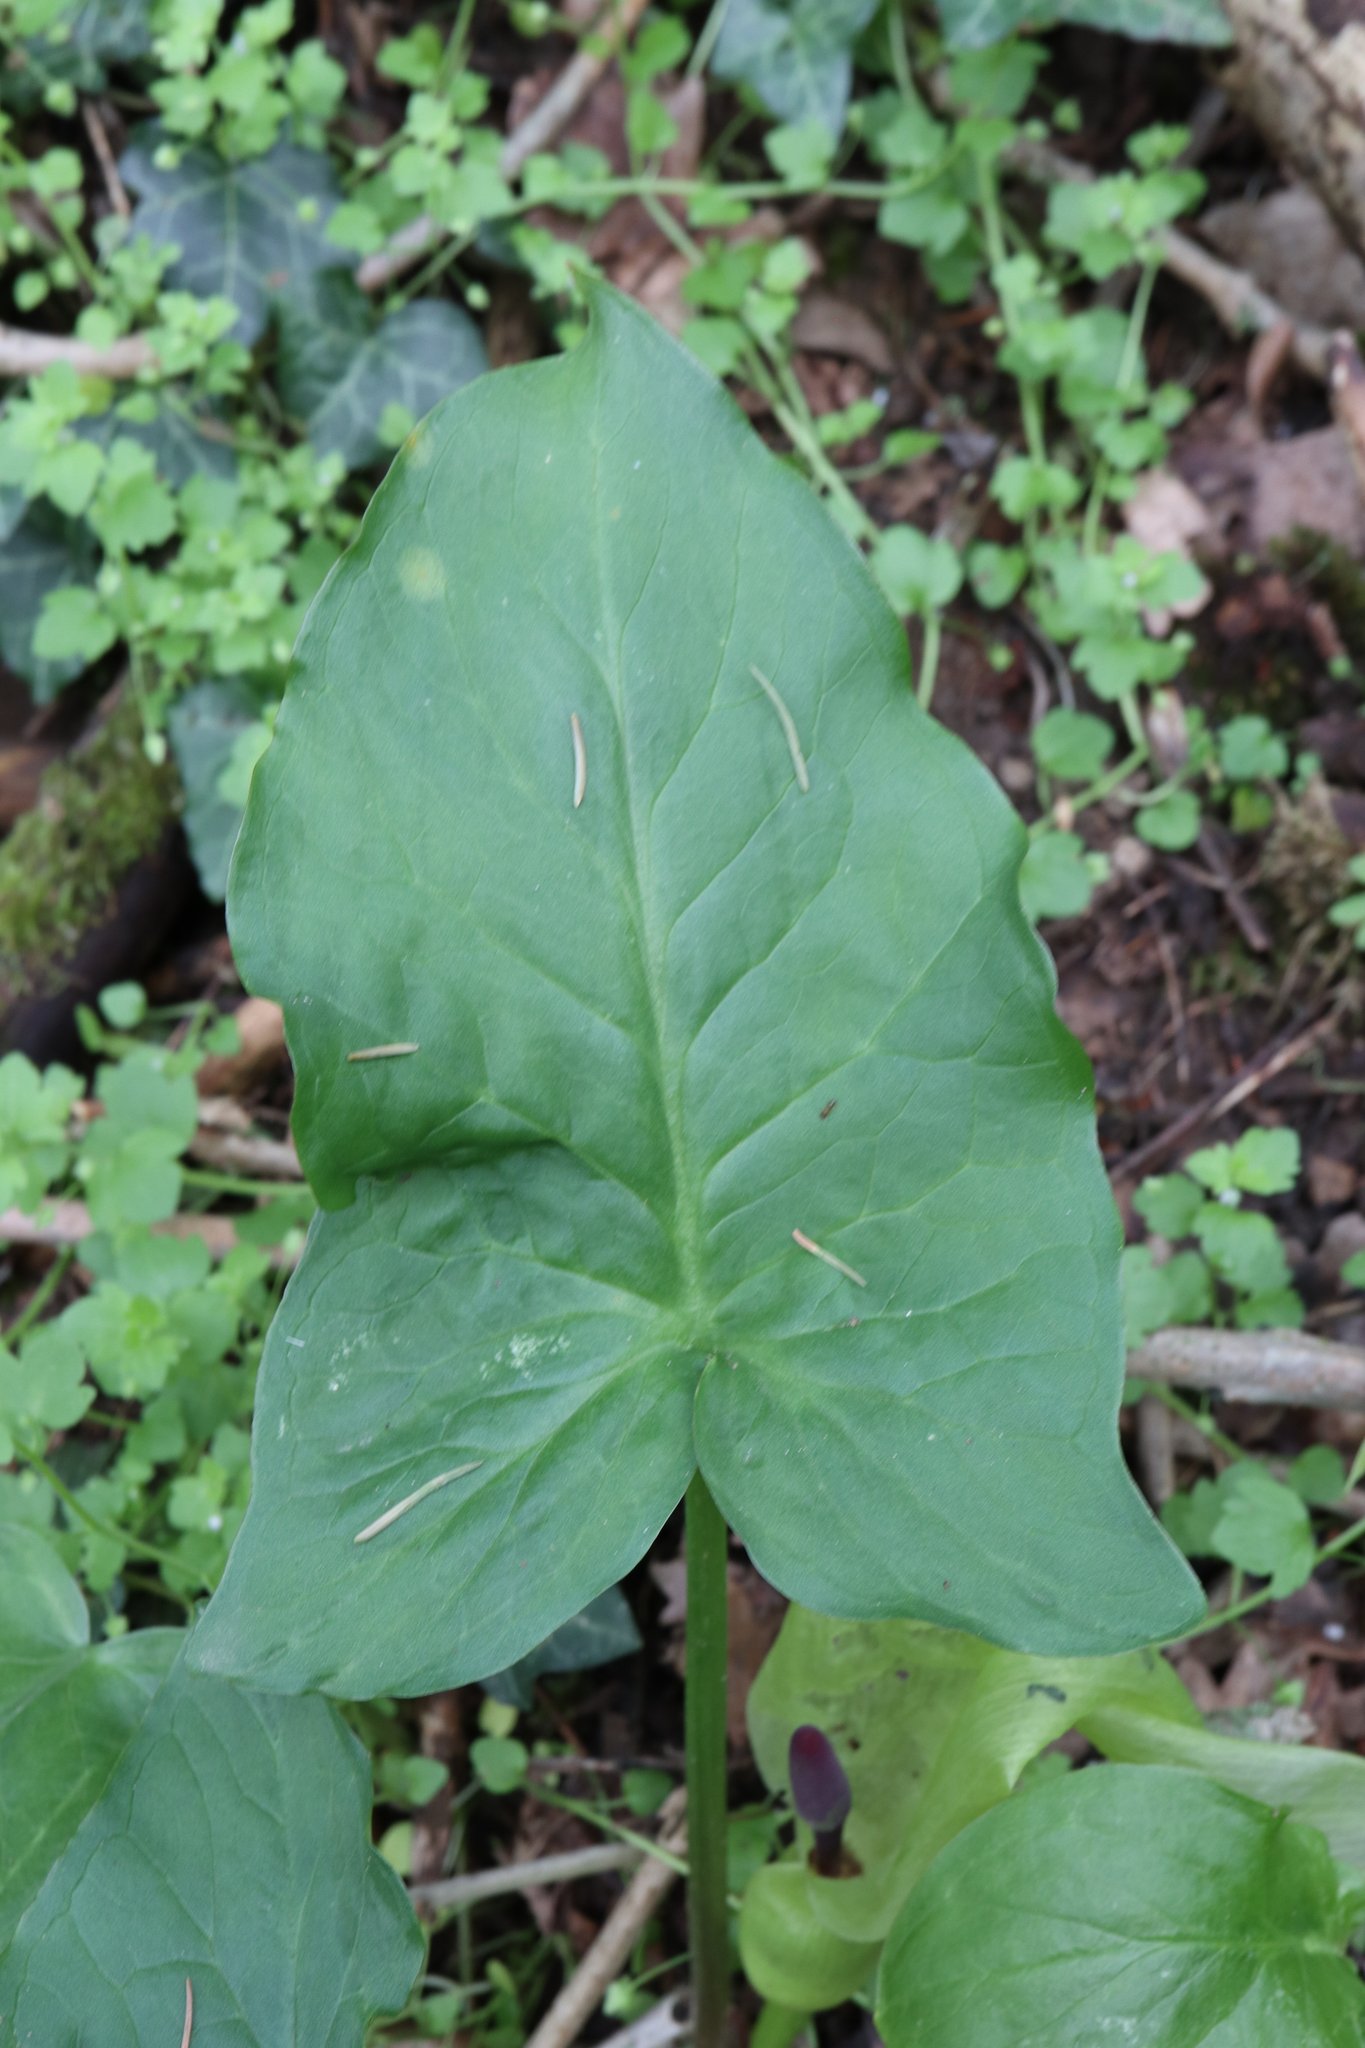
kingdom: Plantae
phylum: Tracheophyta
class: Liliopsida
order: Alismatales
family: Araceae
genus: Arum
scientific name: Arum maculatum
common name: Lords-and-ladies
